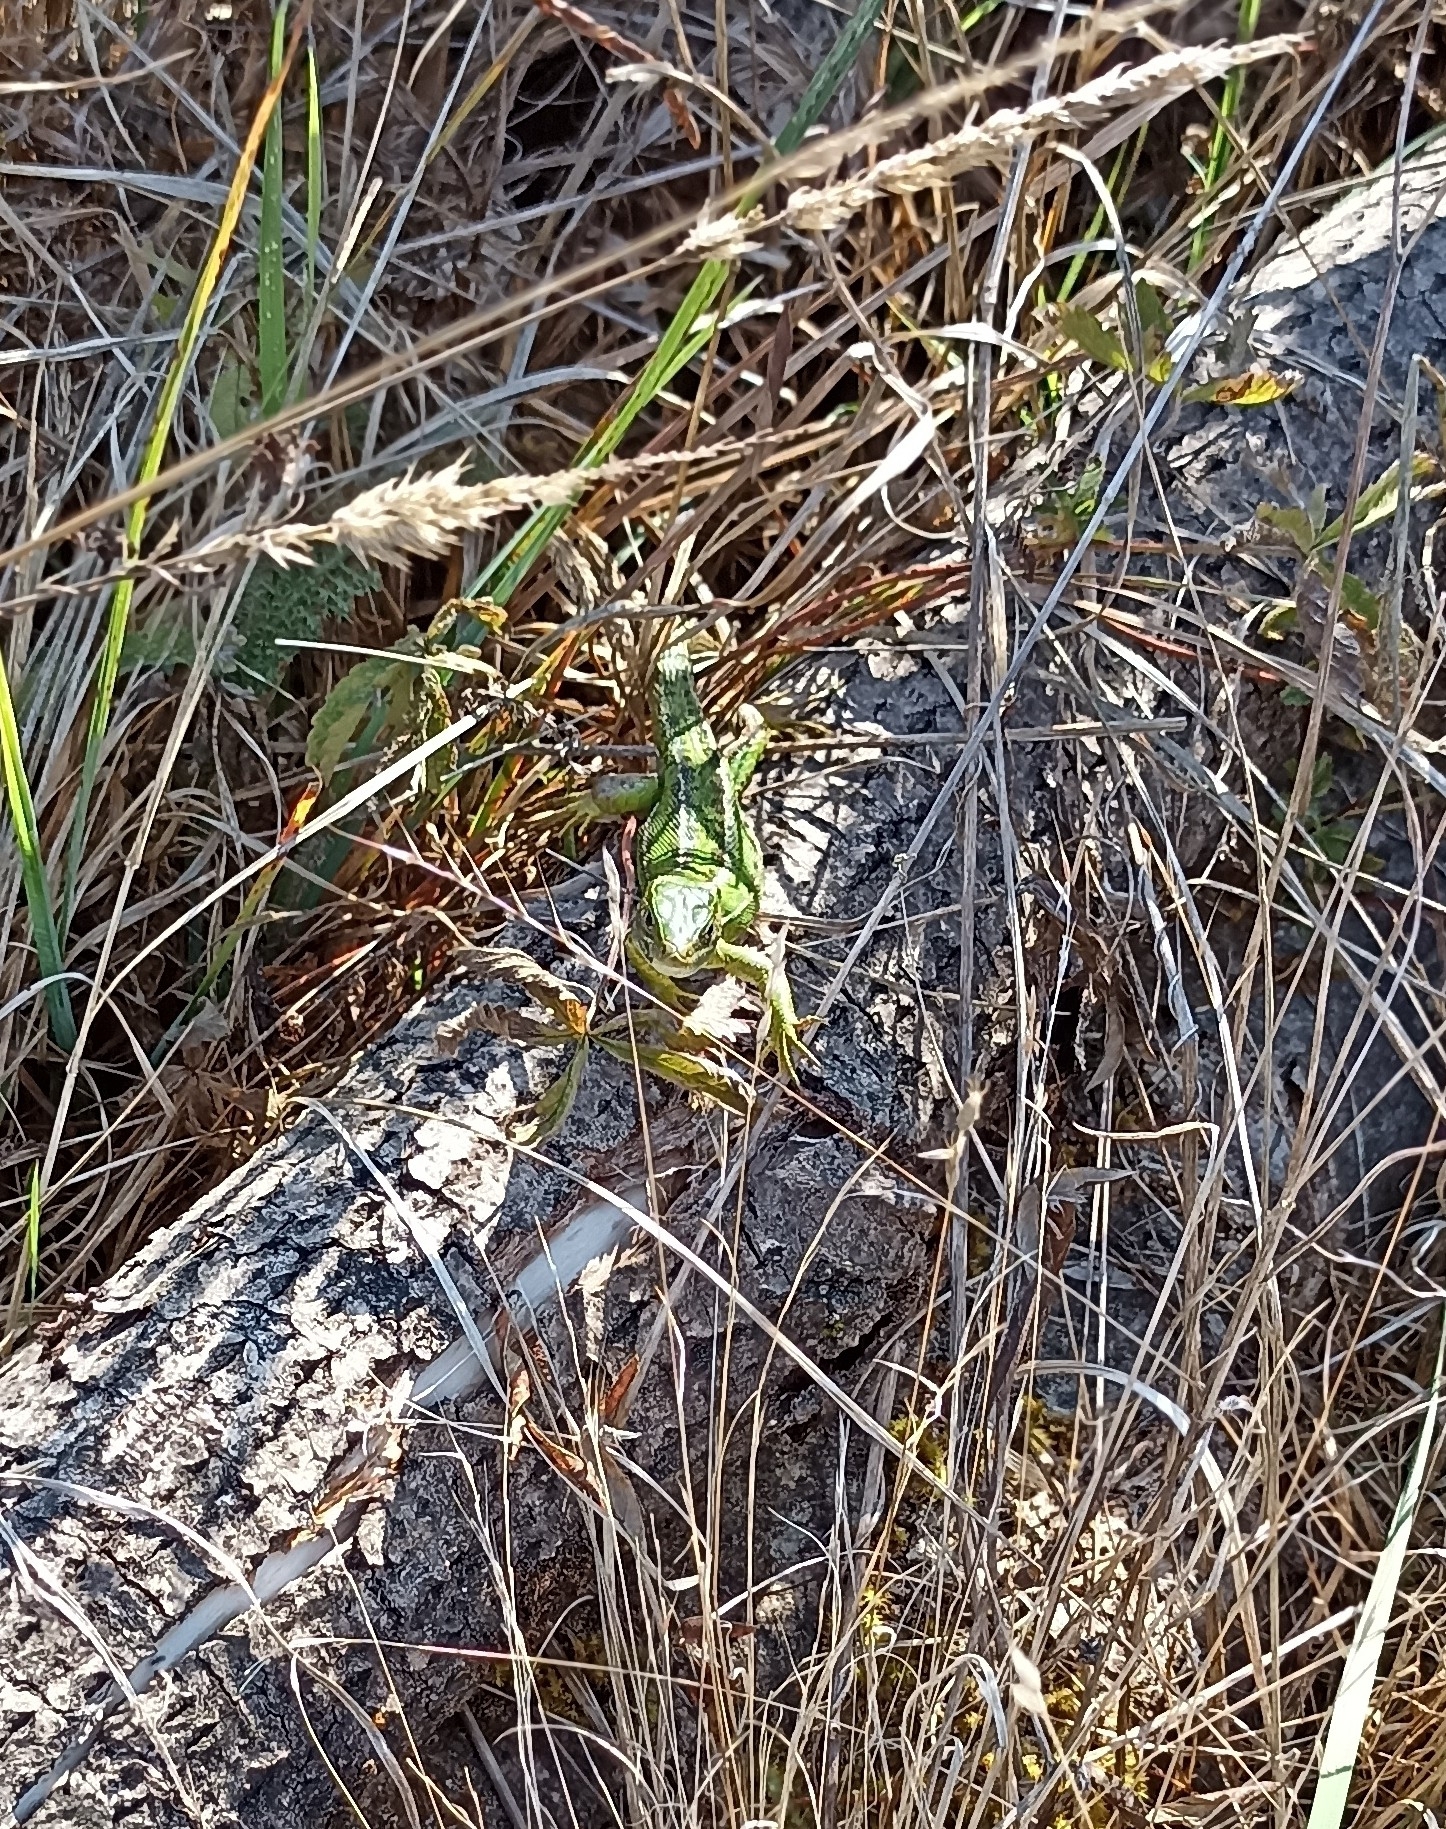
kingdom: Animalia
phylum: Chordata
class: Squamata
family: Lacertidae
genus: Lacerta
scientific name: Lacerta bilineata
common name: Western green lizard
